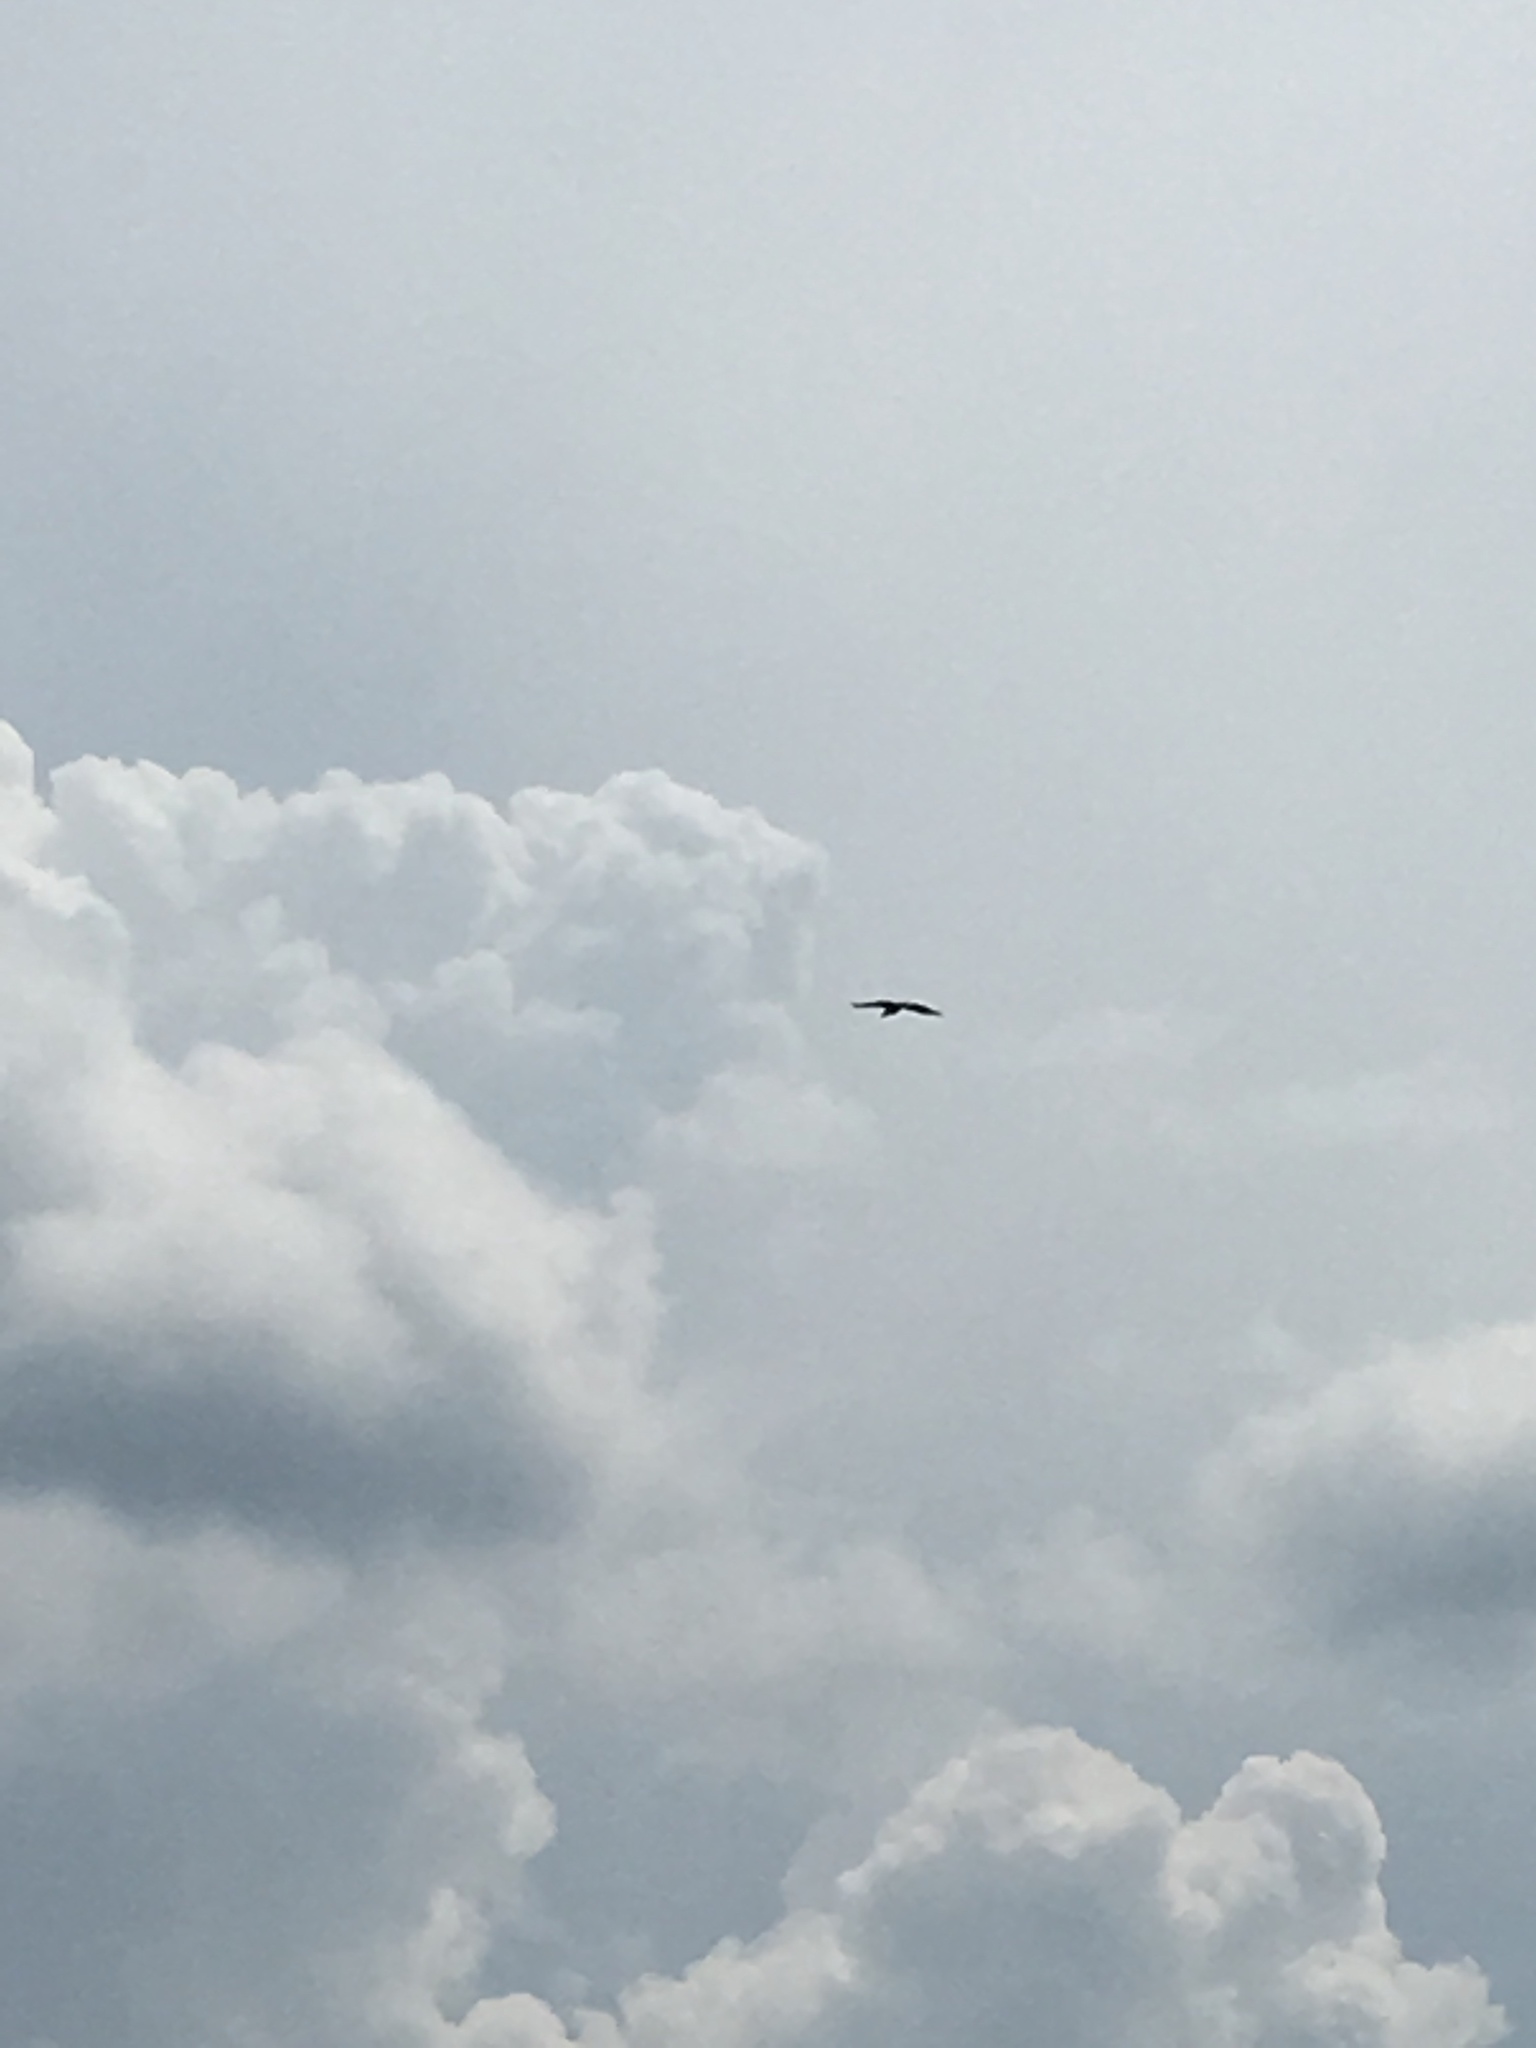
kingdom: Animalia
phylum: Chordata
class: Aves
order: Accipitriformes
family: Accipitridae
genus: Haliaeetus
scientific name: Haliaeetus leucocephalus
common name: Bald eagle
